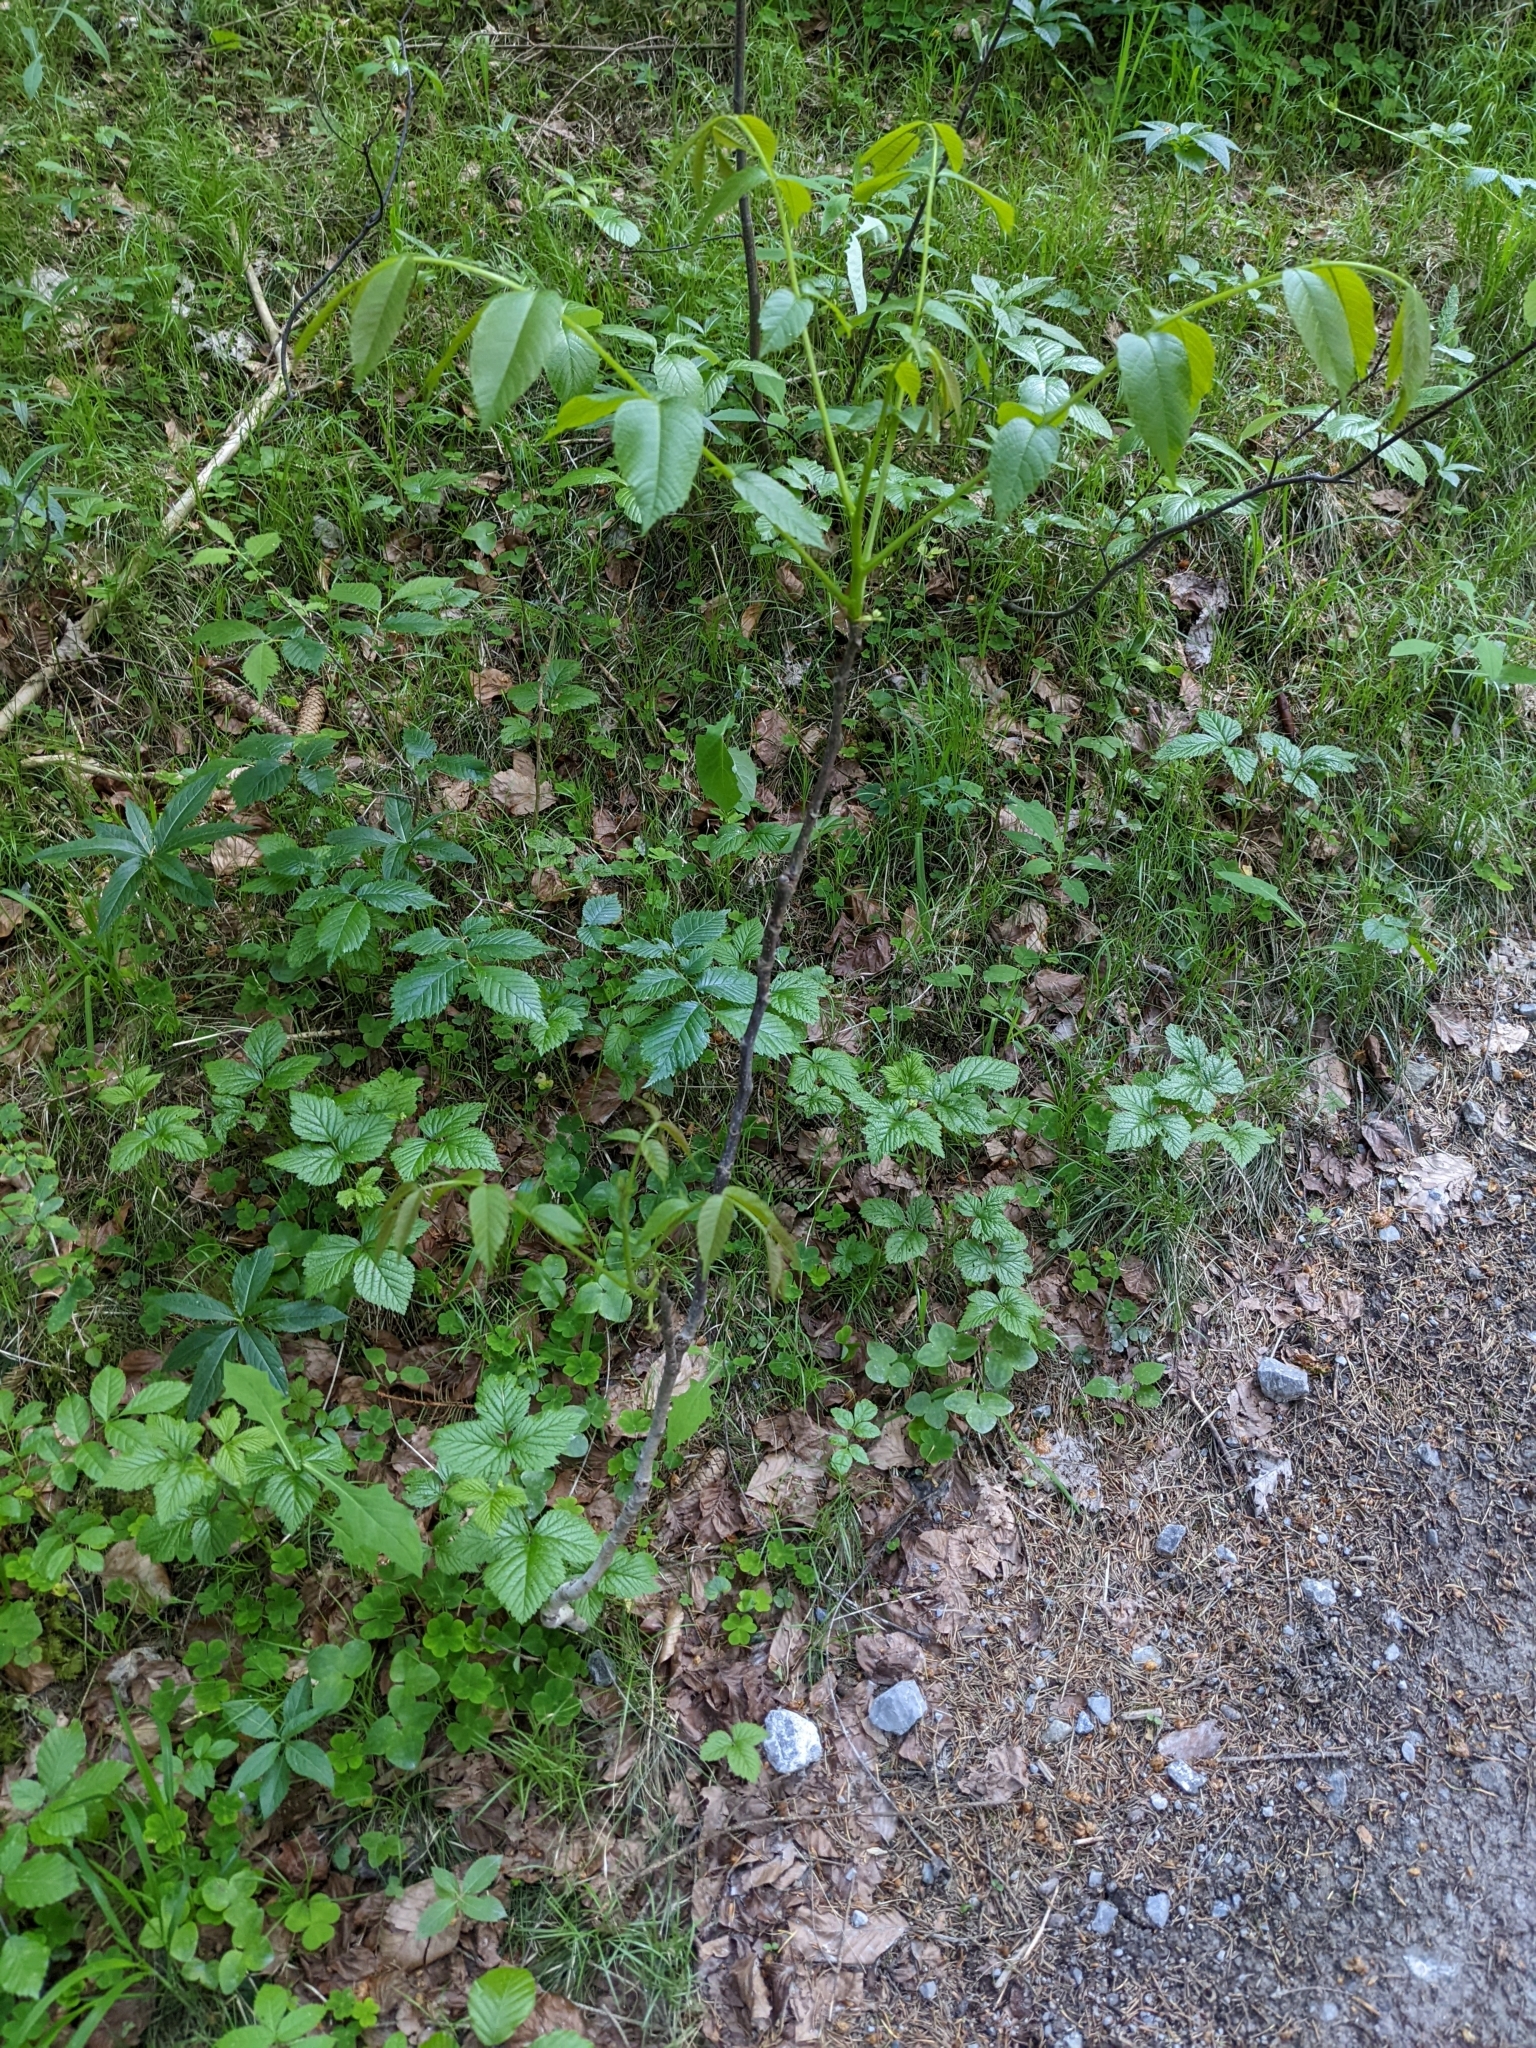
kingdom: Plantae
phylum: Tracheophyta
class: Magnoliopsida
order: Fagales
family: Juglandaceae
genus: Juglans
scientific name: Juglans regia
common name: Walnut
